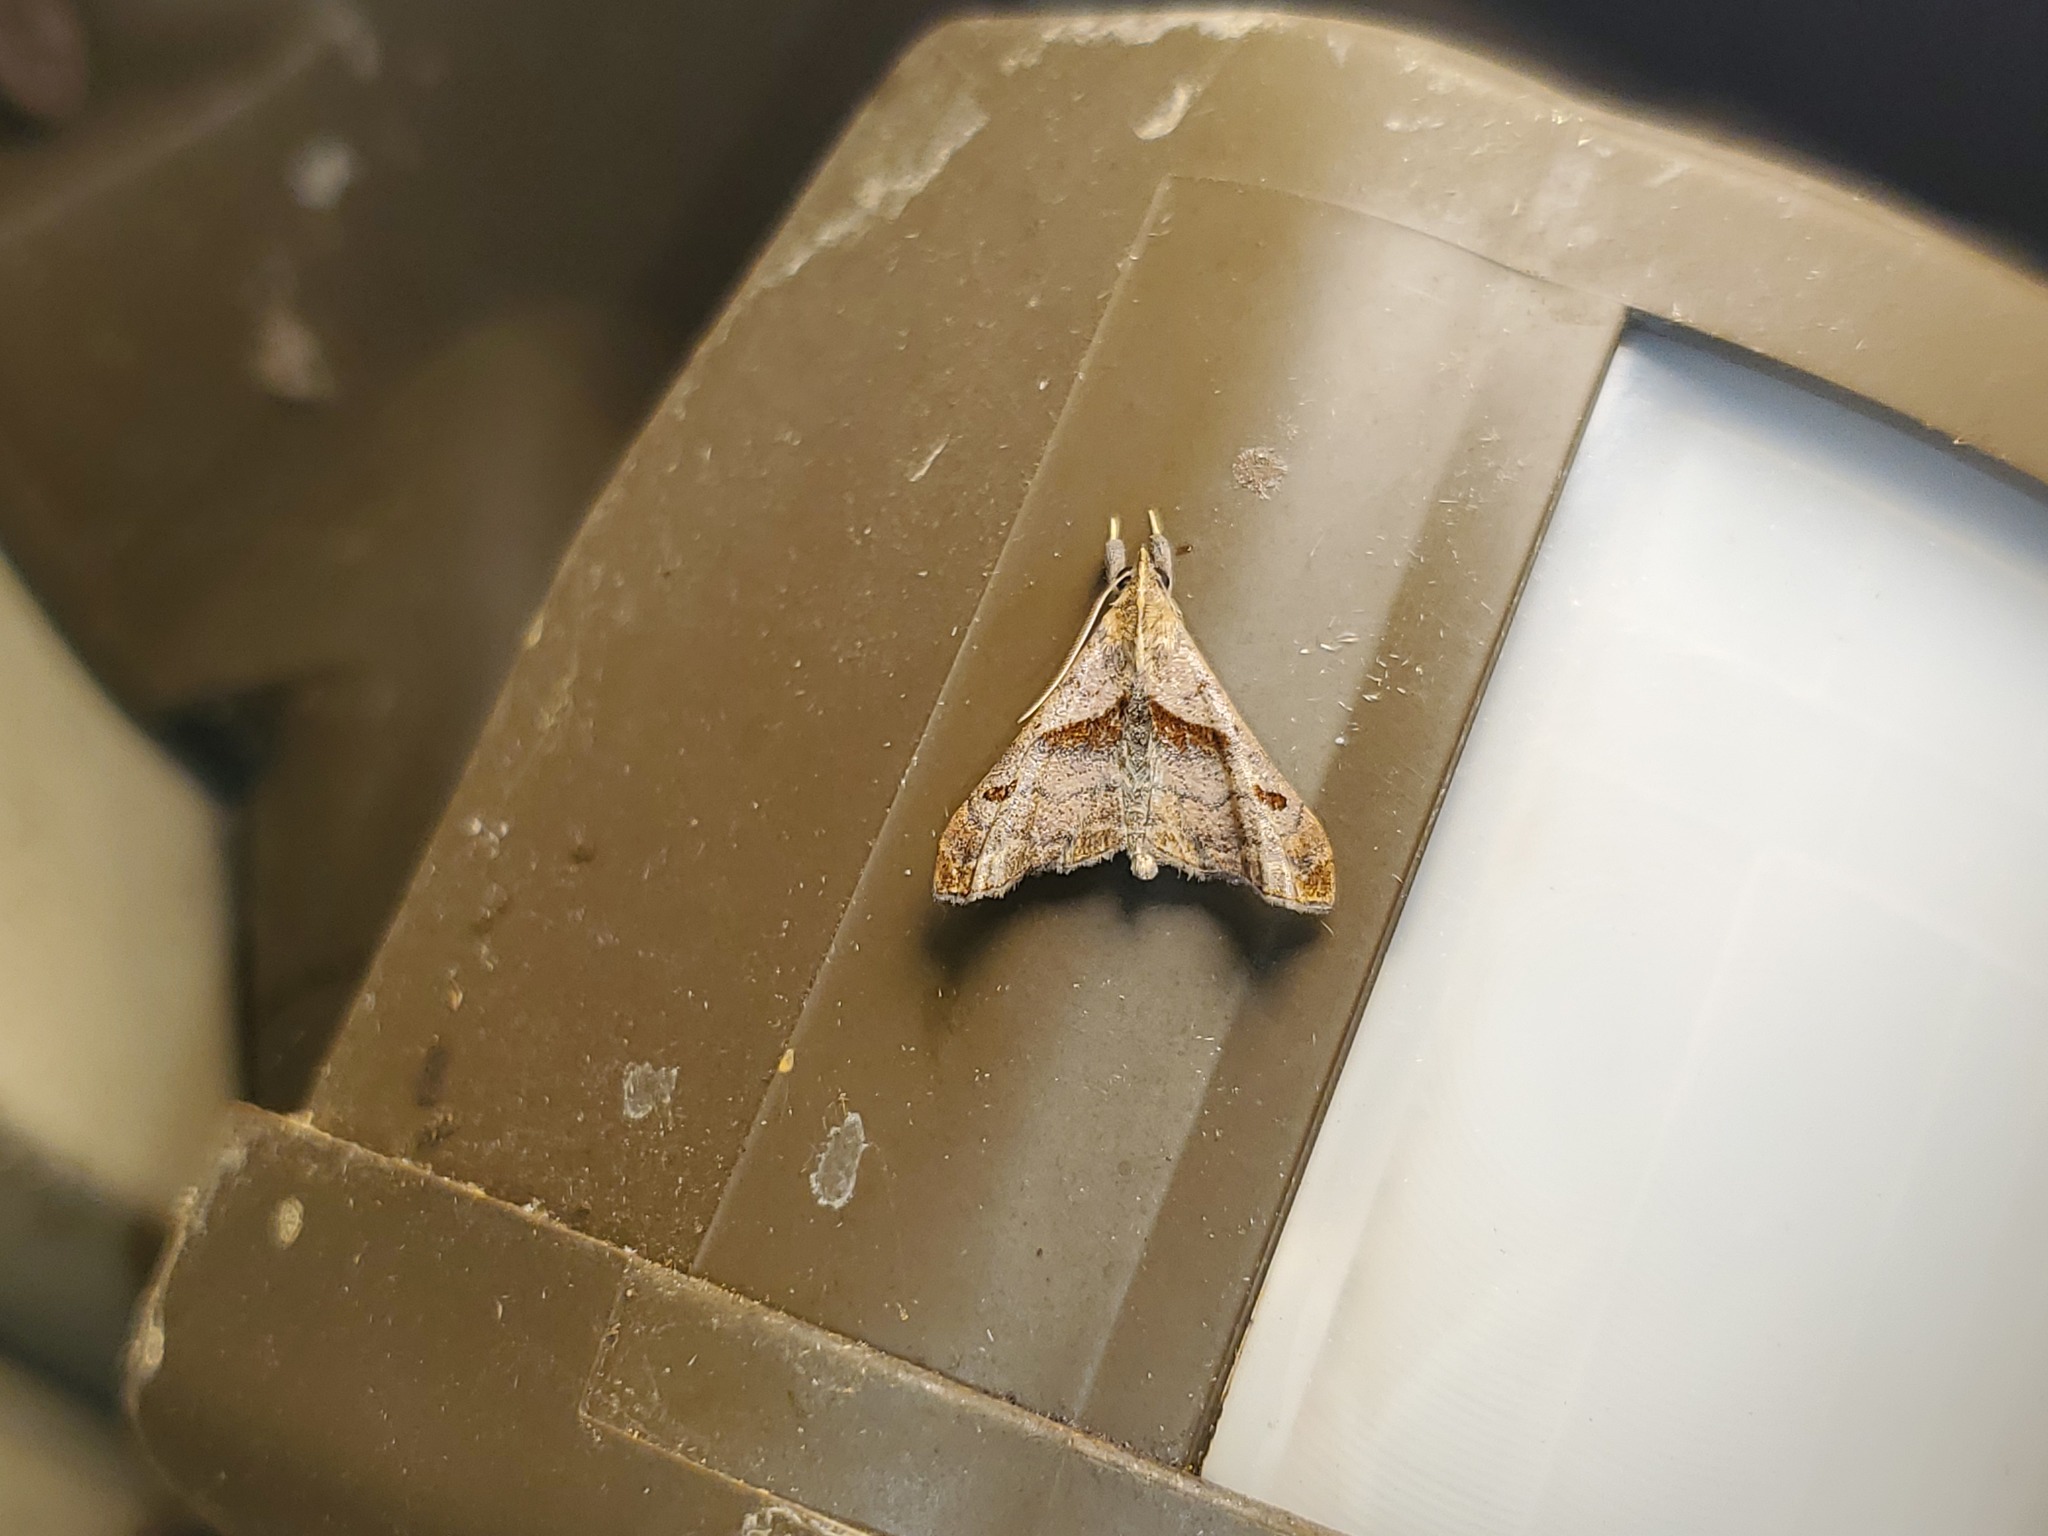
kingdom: Animalia
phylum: Arthropoda
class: Insecta
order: Lepidoptera
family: Erebidae
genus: Palthis
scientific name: Palthis angulalis
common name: Dark-spotted palthis moth
